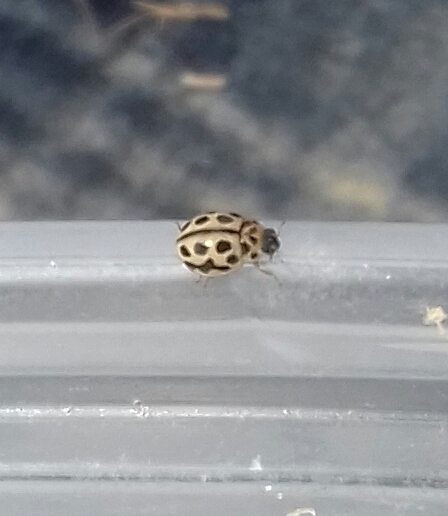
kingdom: Animalia
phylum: Arthropoda
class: Insecta
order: Coleoptera
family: Coccinellidae
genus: Tytthaspis
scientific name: Tytthaspis sedecimpunctata
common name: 16-spot ladybird
